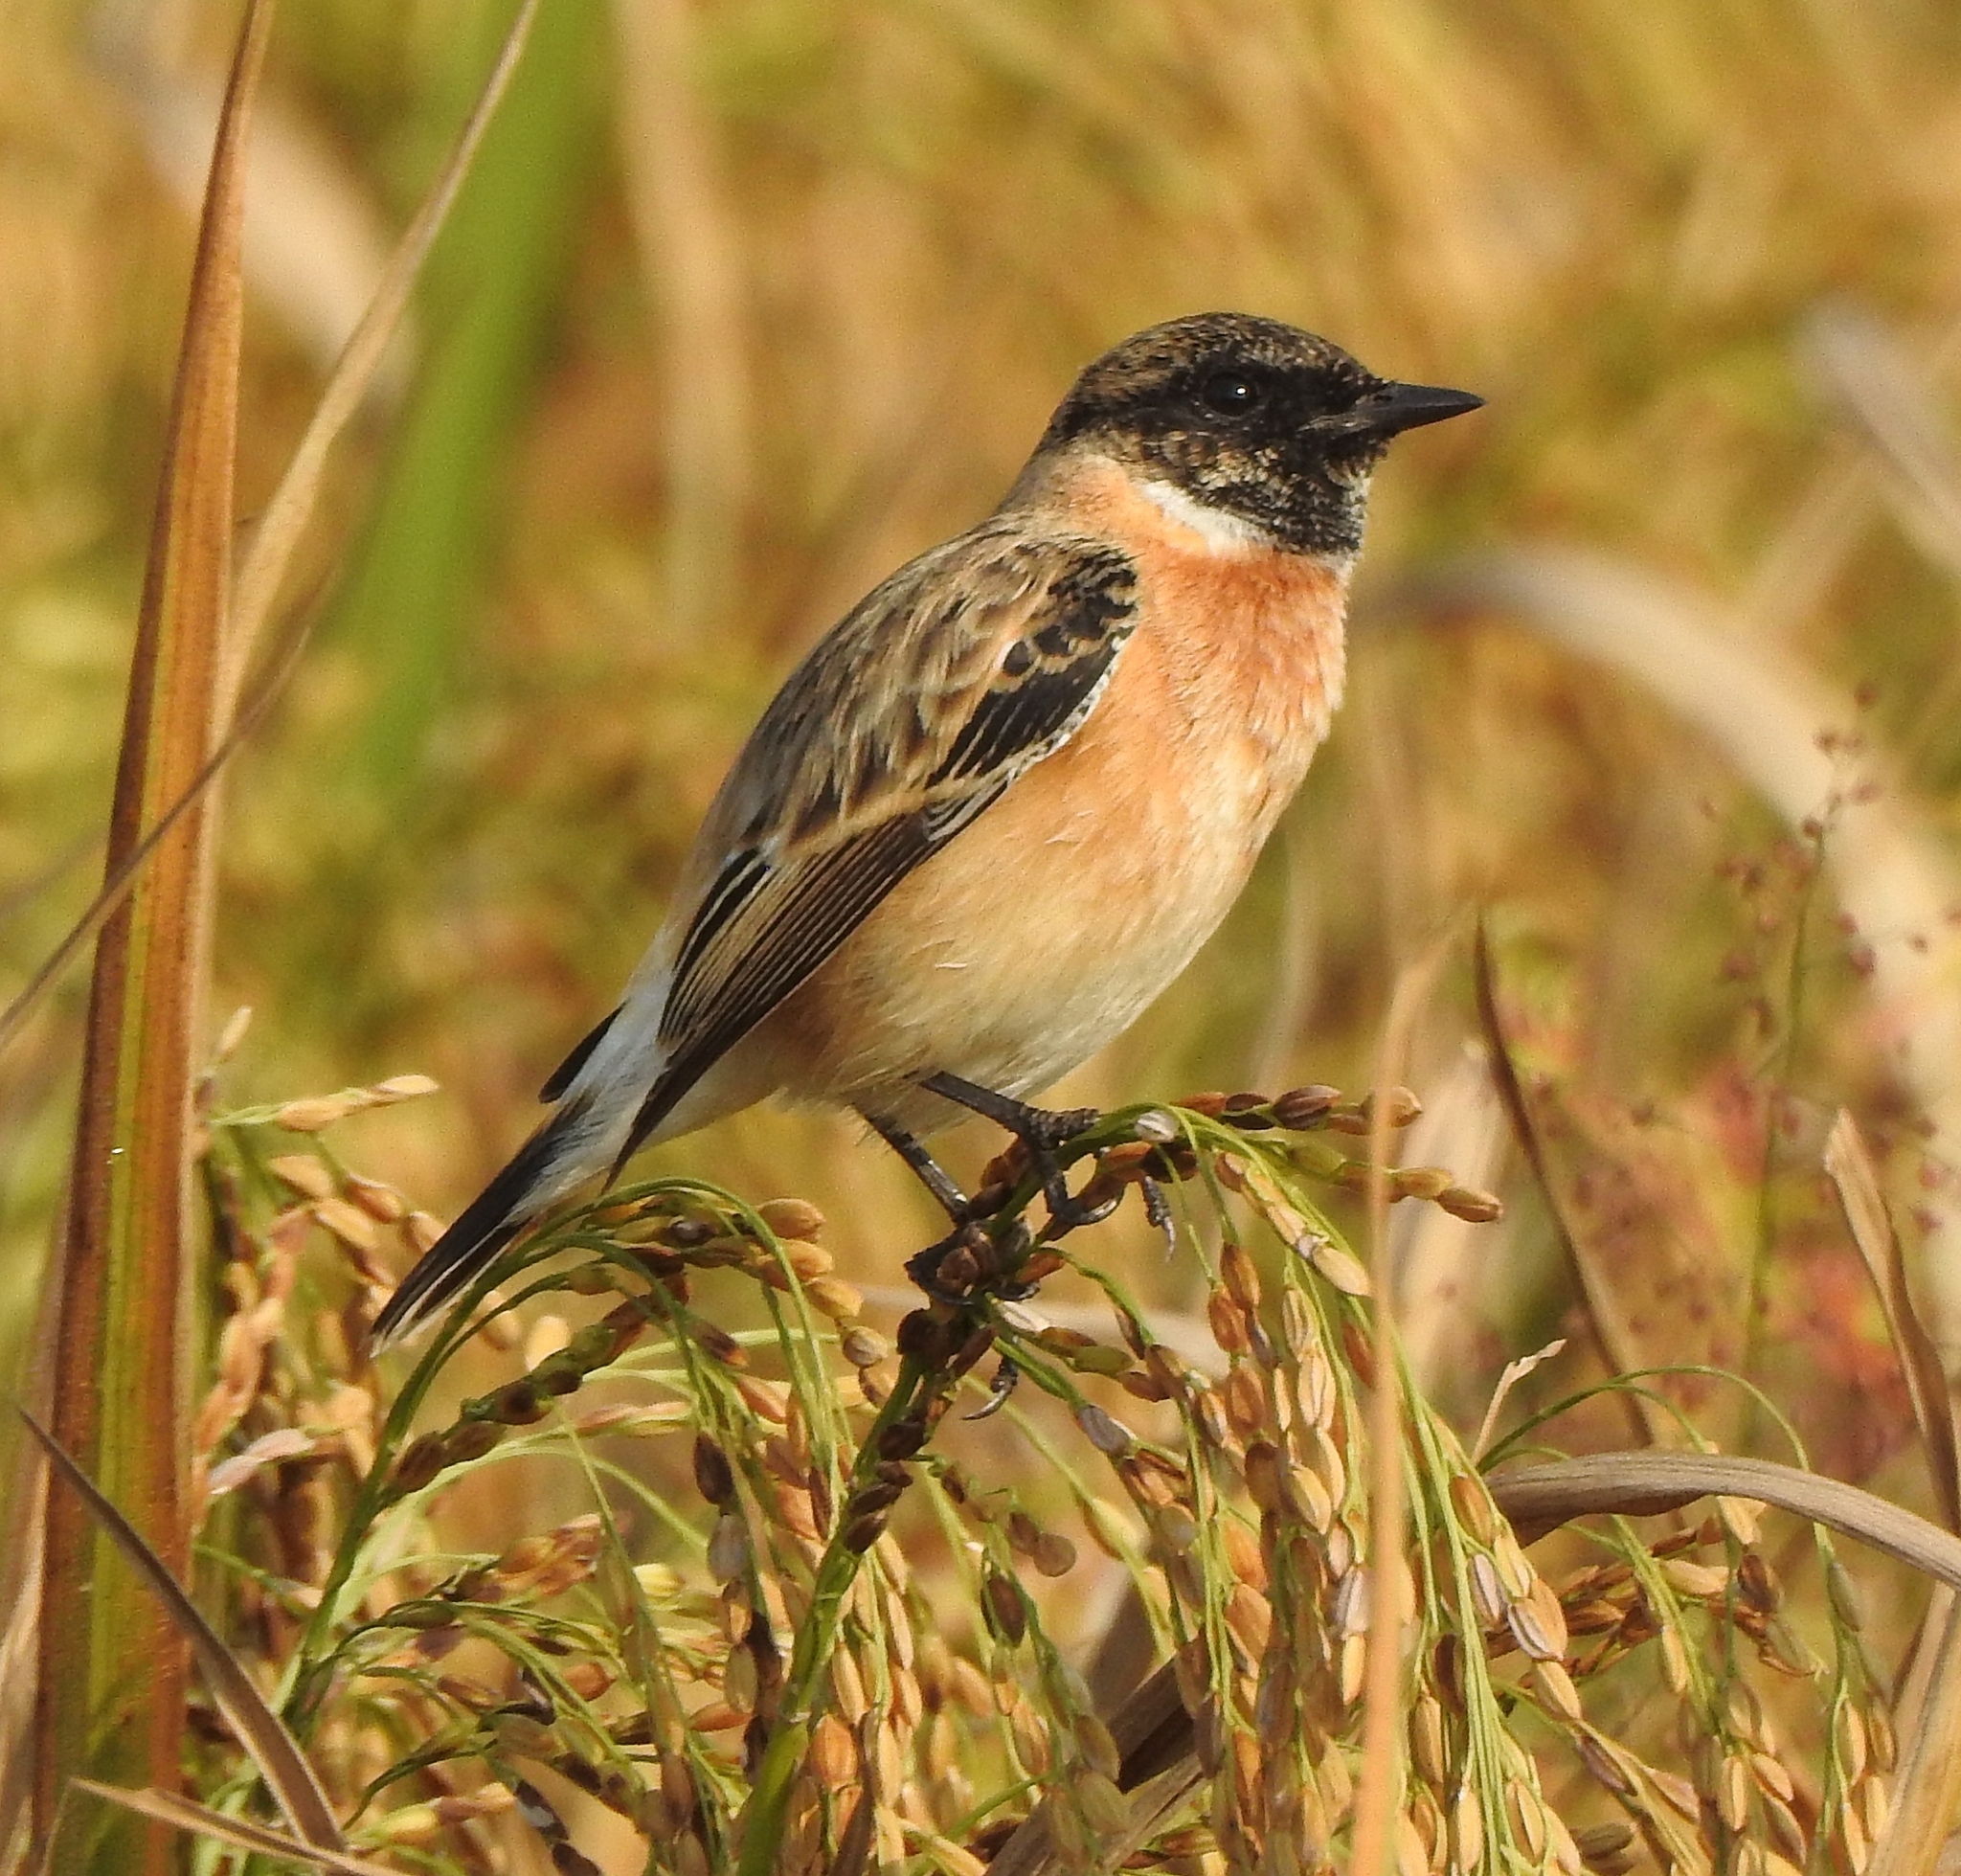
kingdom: Animalia
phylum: Chordata
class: Aves
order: Passeriformes
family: Muscicapidae
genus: Saxicola
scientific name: Saxicola maurus
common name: Siberian stonechat
